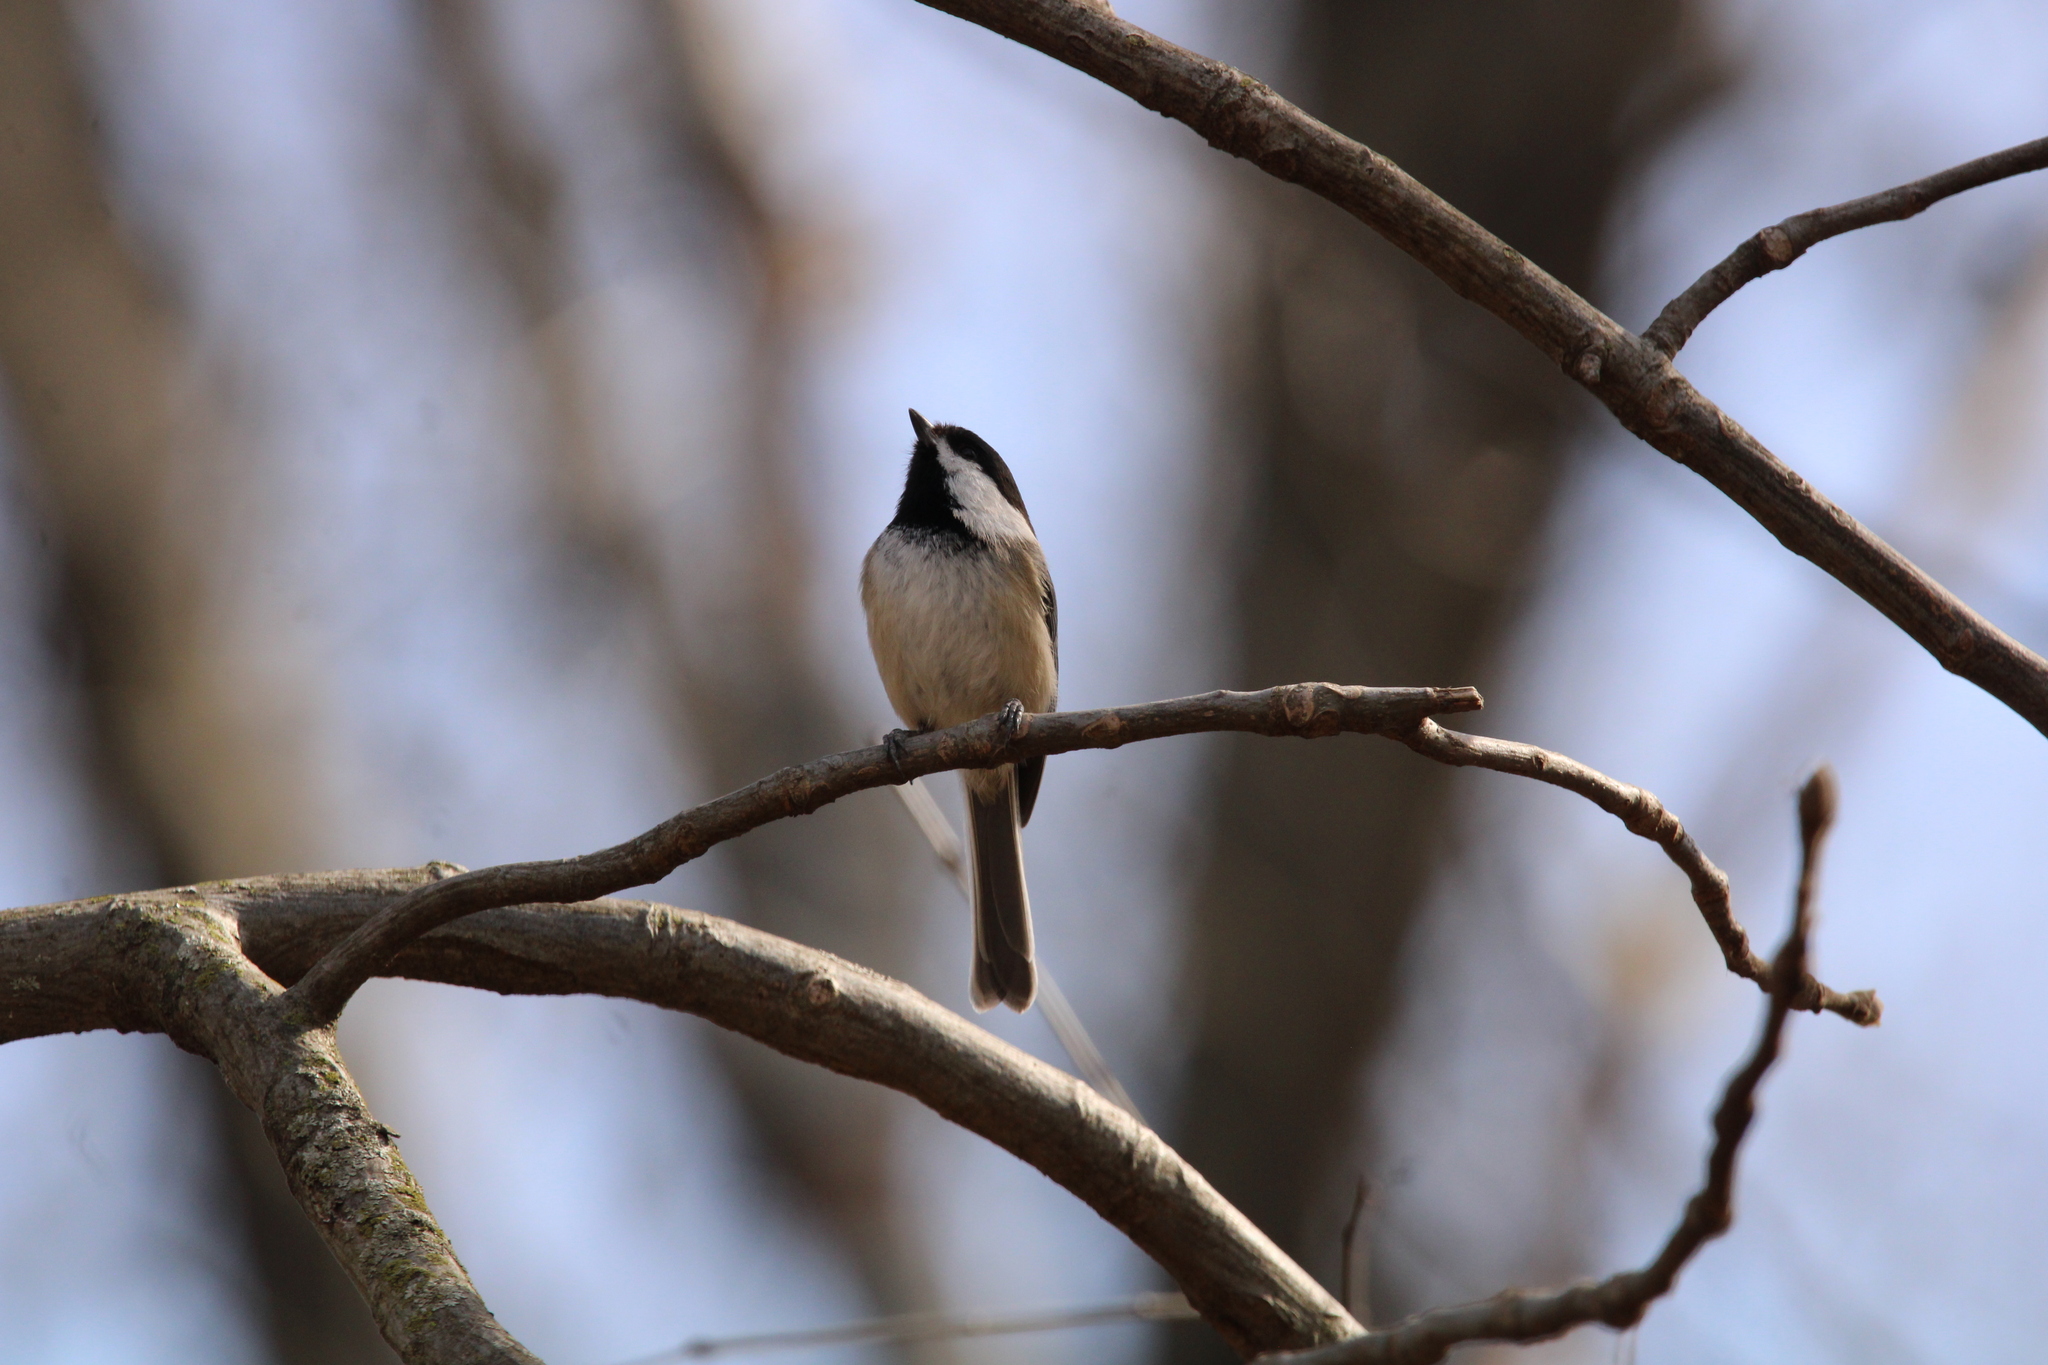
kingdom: Animalia
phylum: Chordata
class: Aves
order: Passeriformes
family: Paridae
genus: Poecile
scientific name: Poecile atricapillus
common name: Black-capped chickadee
